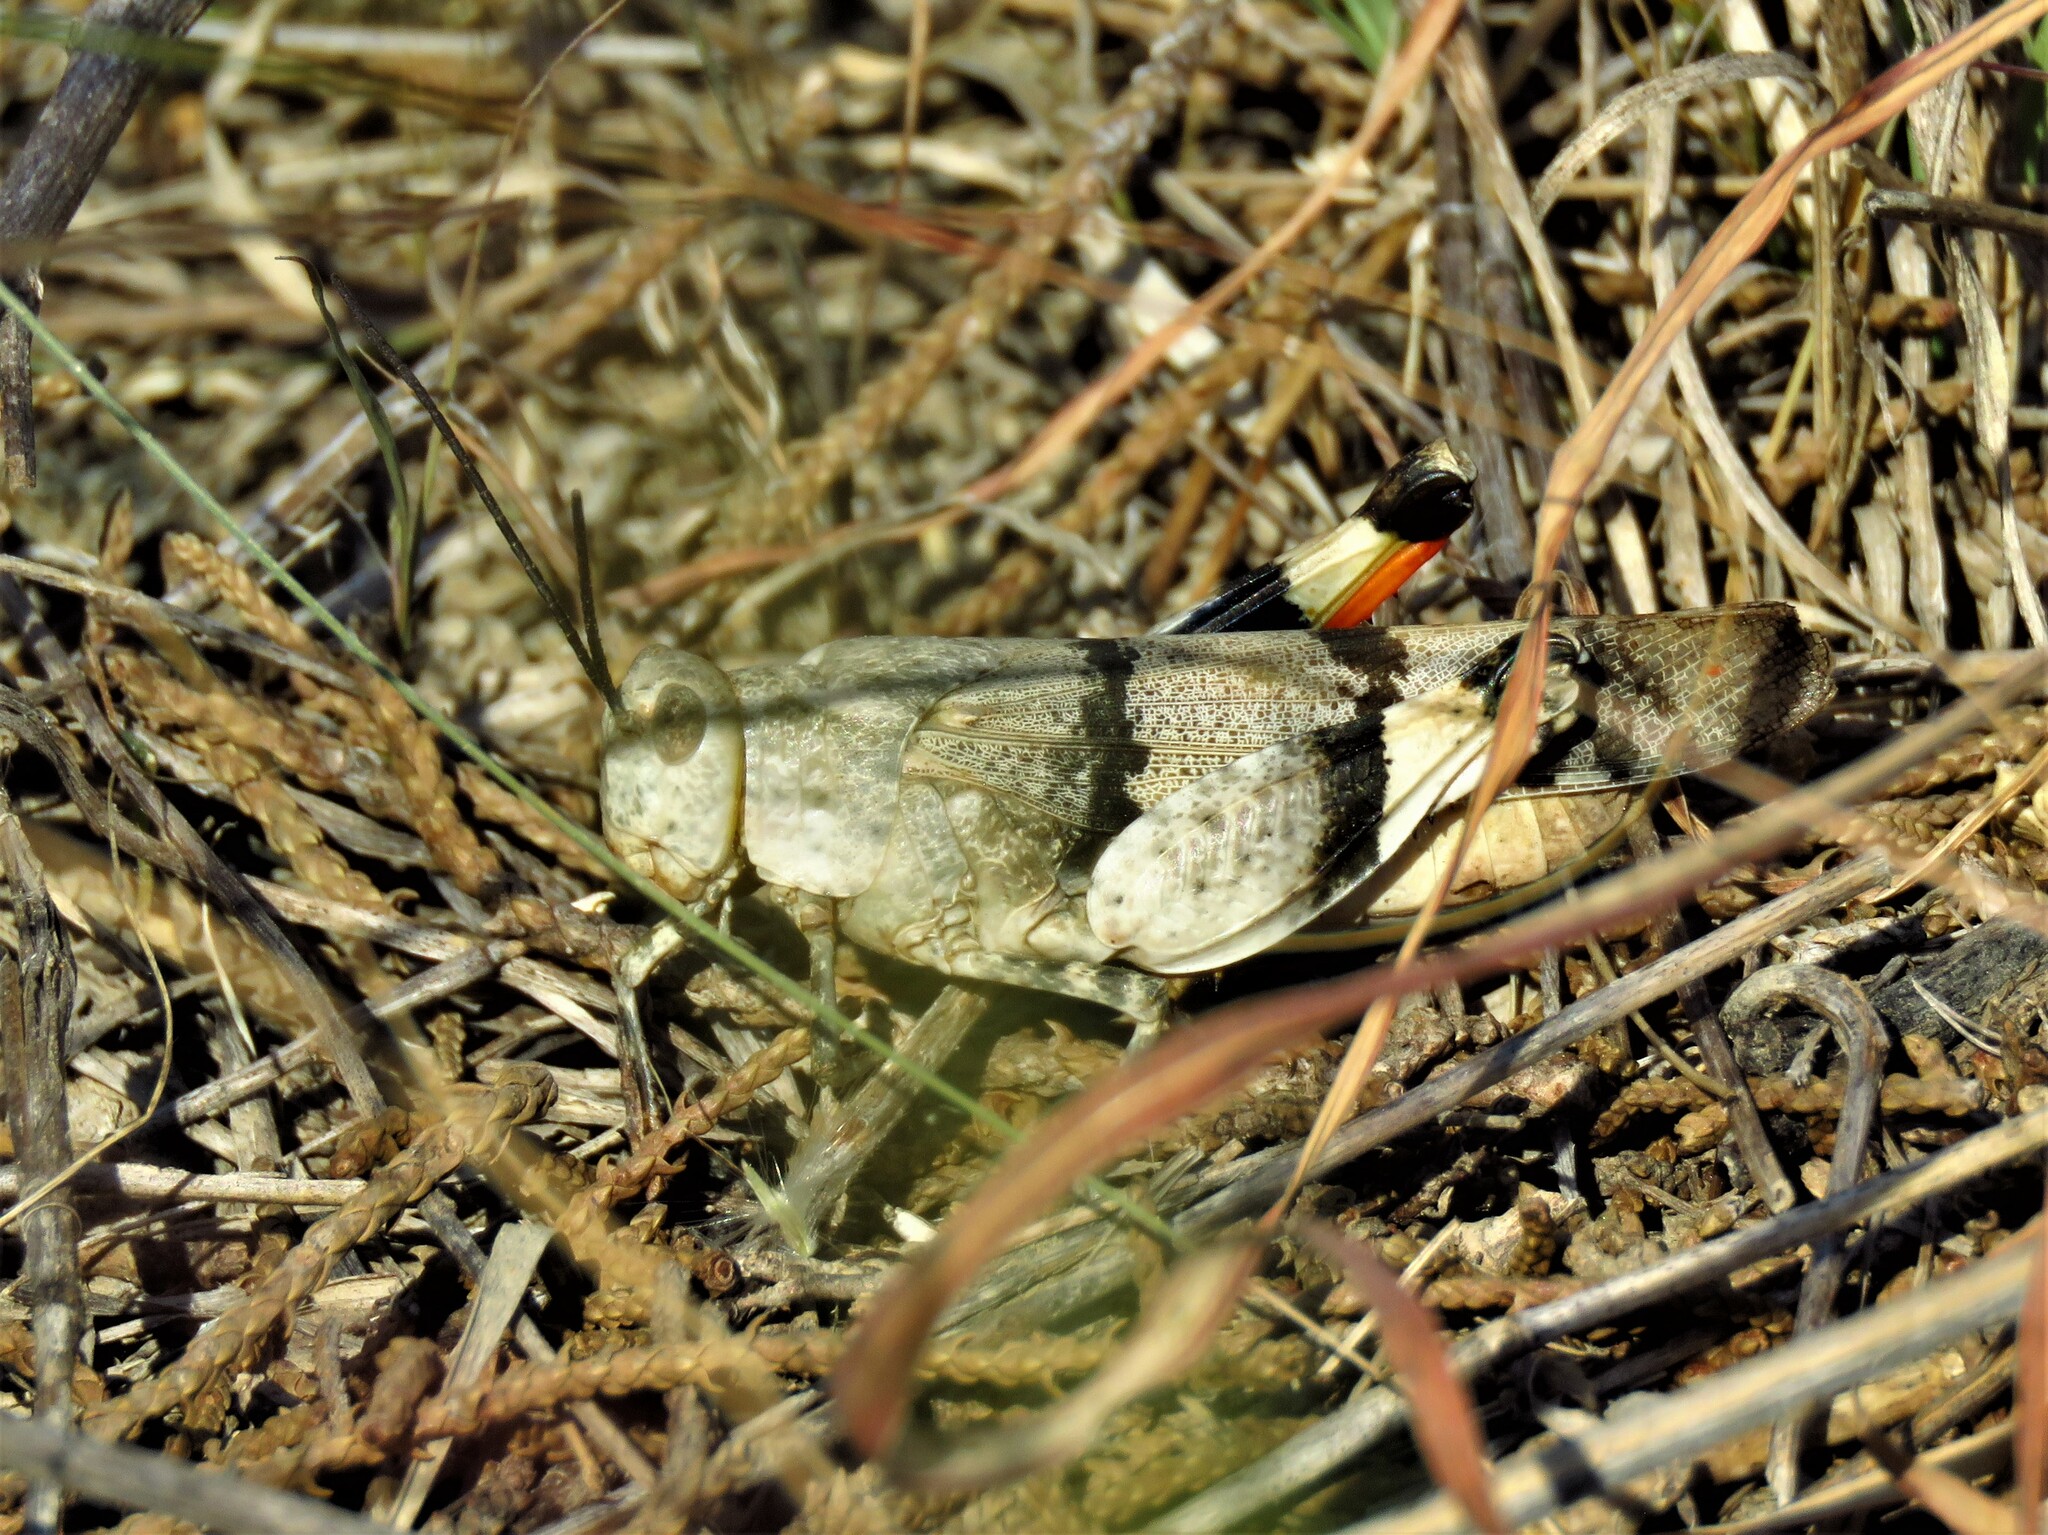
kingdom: Animalia
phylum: Arthropoda
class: Insecta
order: Orthoptera
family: Acrididae
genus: Hadrotettix
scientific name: Hadrotettix trifasciatus
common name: Threebanded grasshopper
